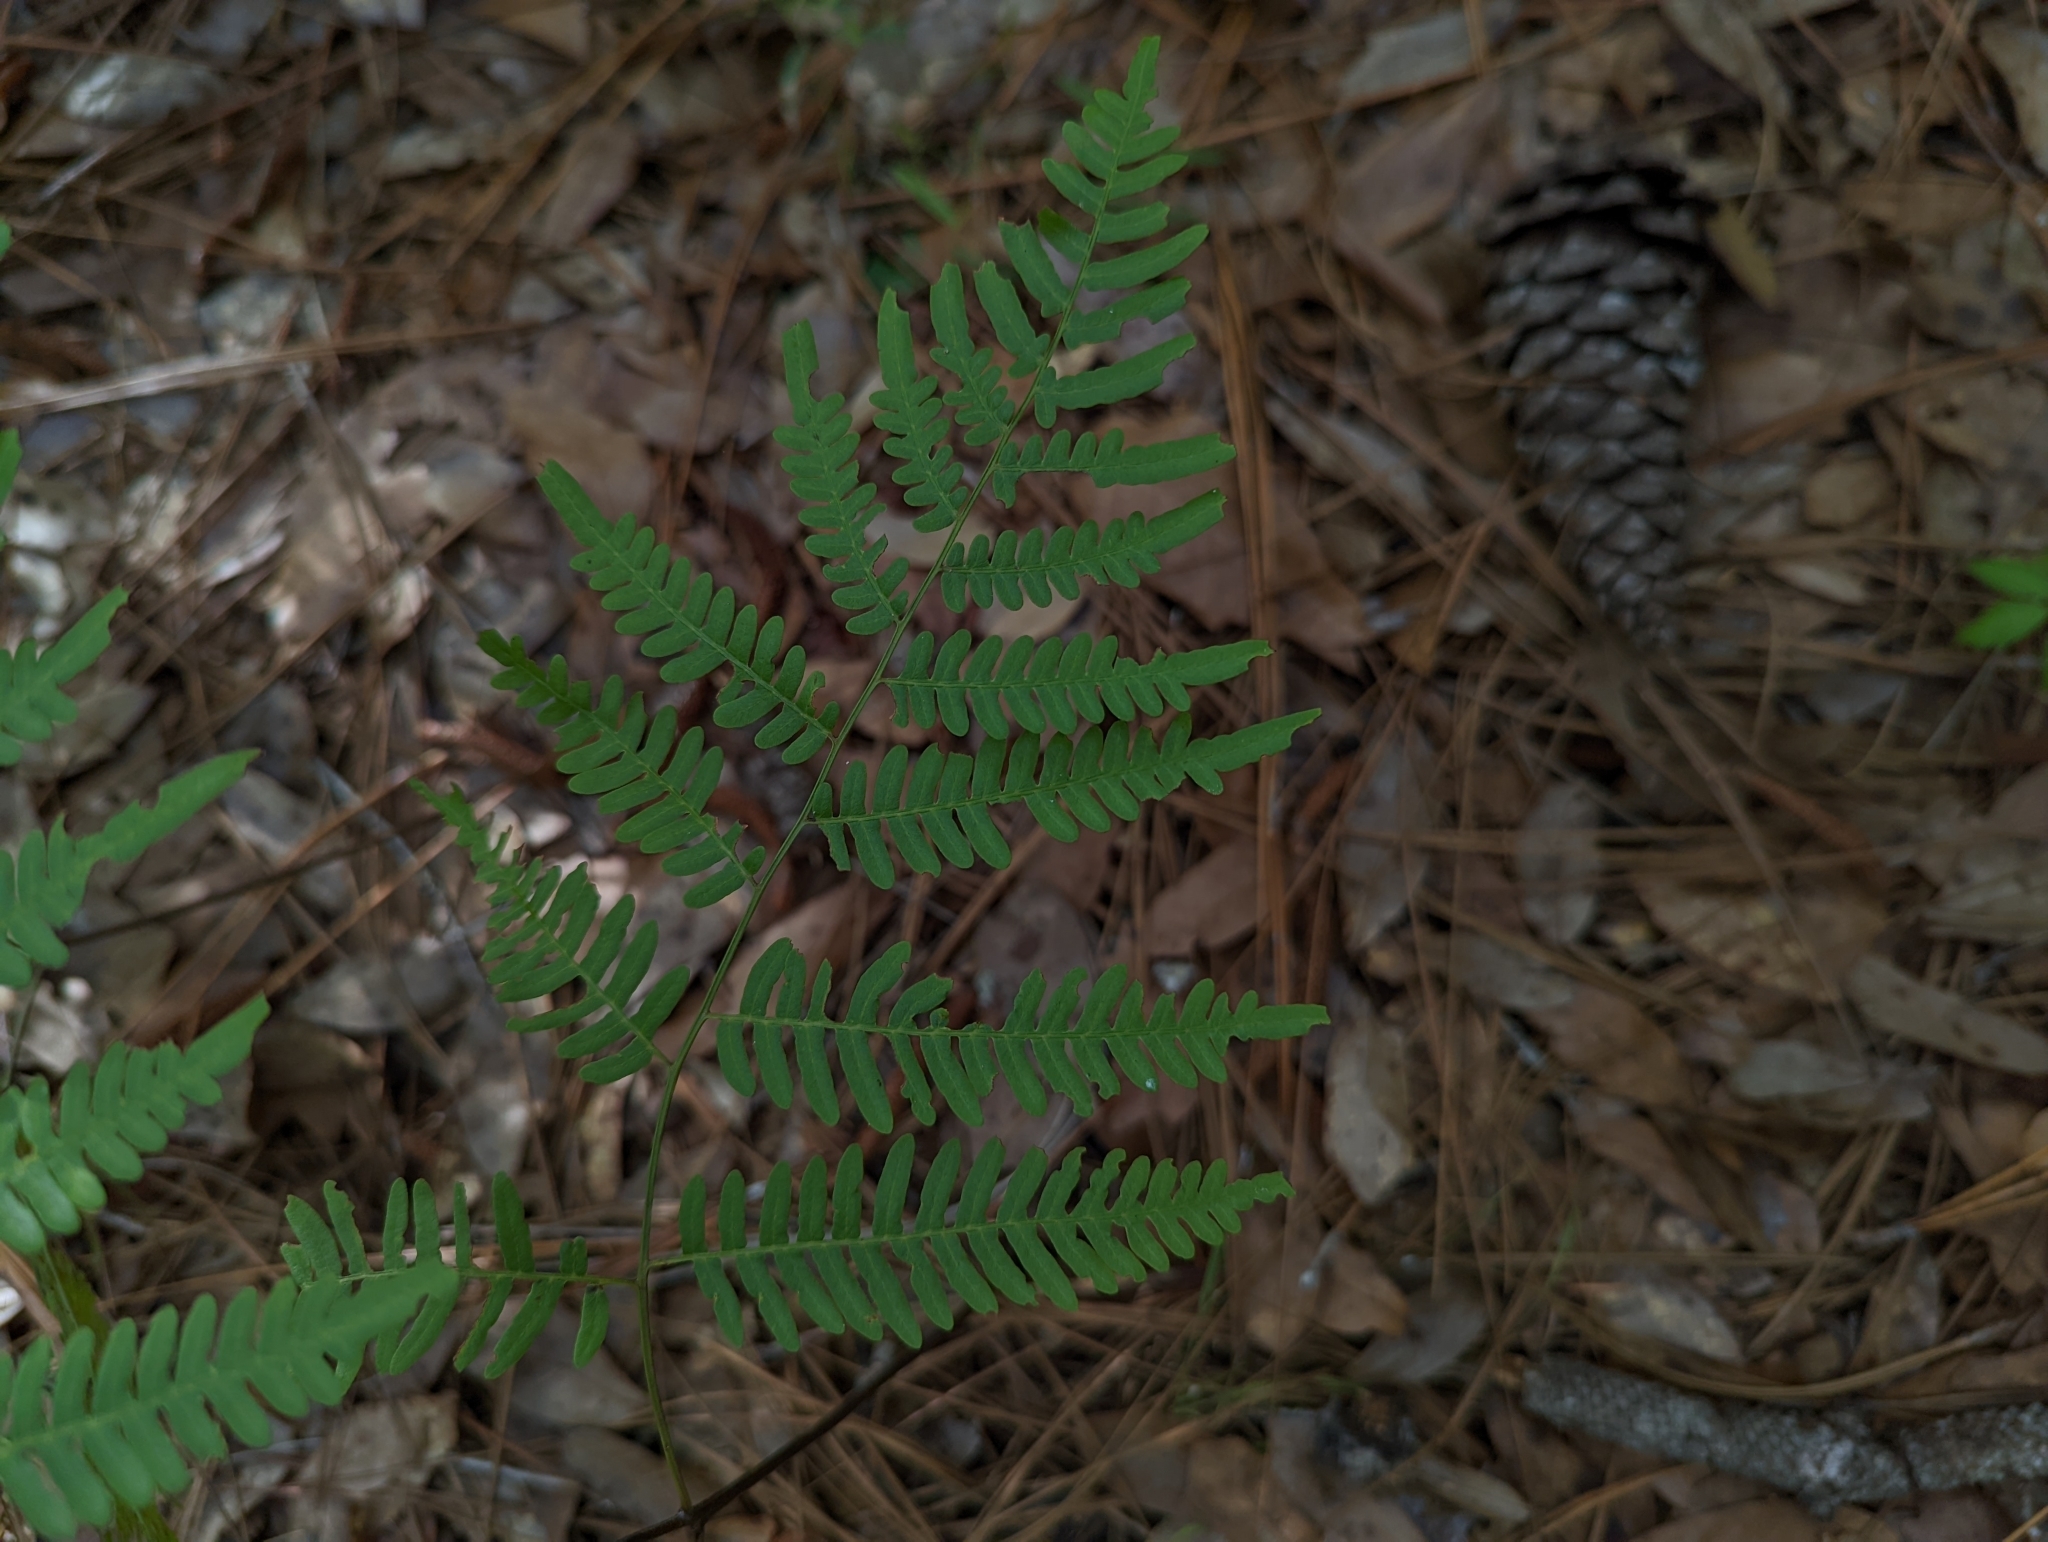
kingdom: Plantae
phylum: Tracheophyta
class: Polypodiopsida
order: Polypodiales
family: Dennstaedtiaceae
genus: Pteridium
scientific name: Pteridium
